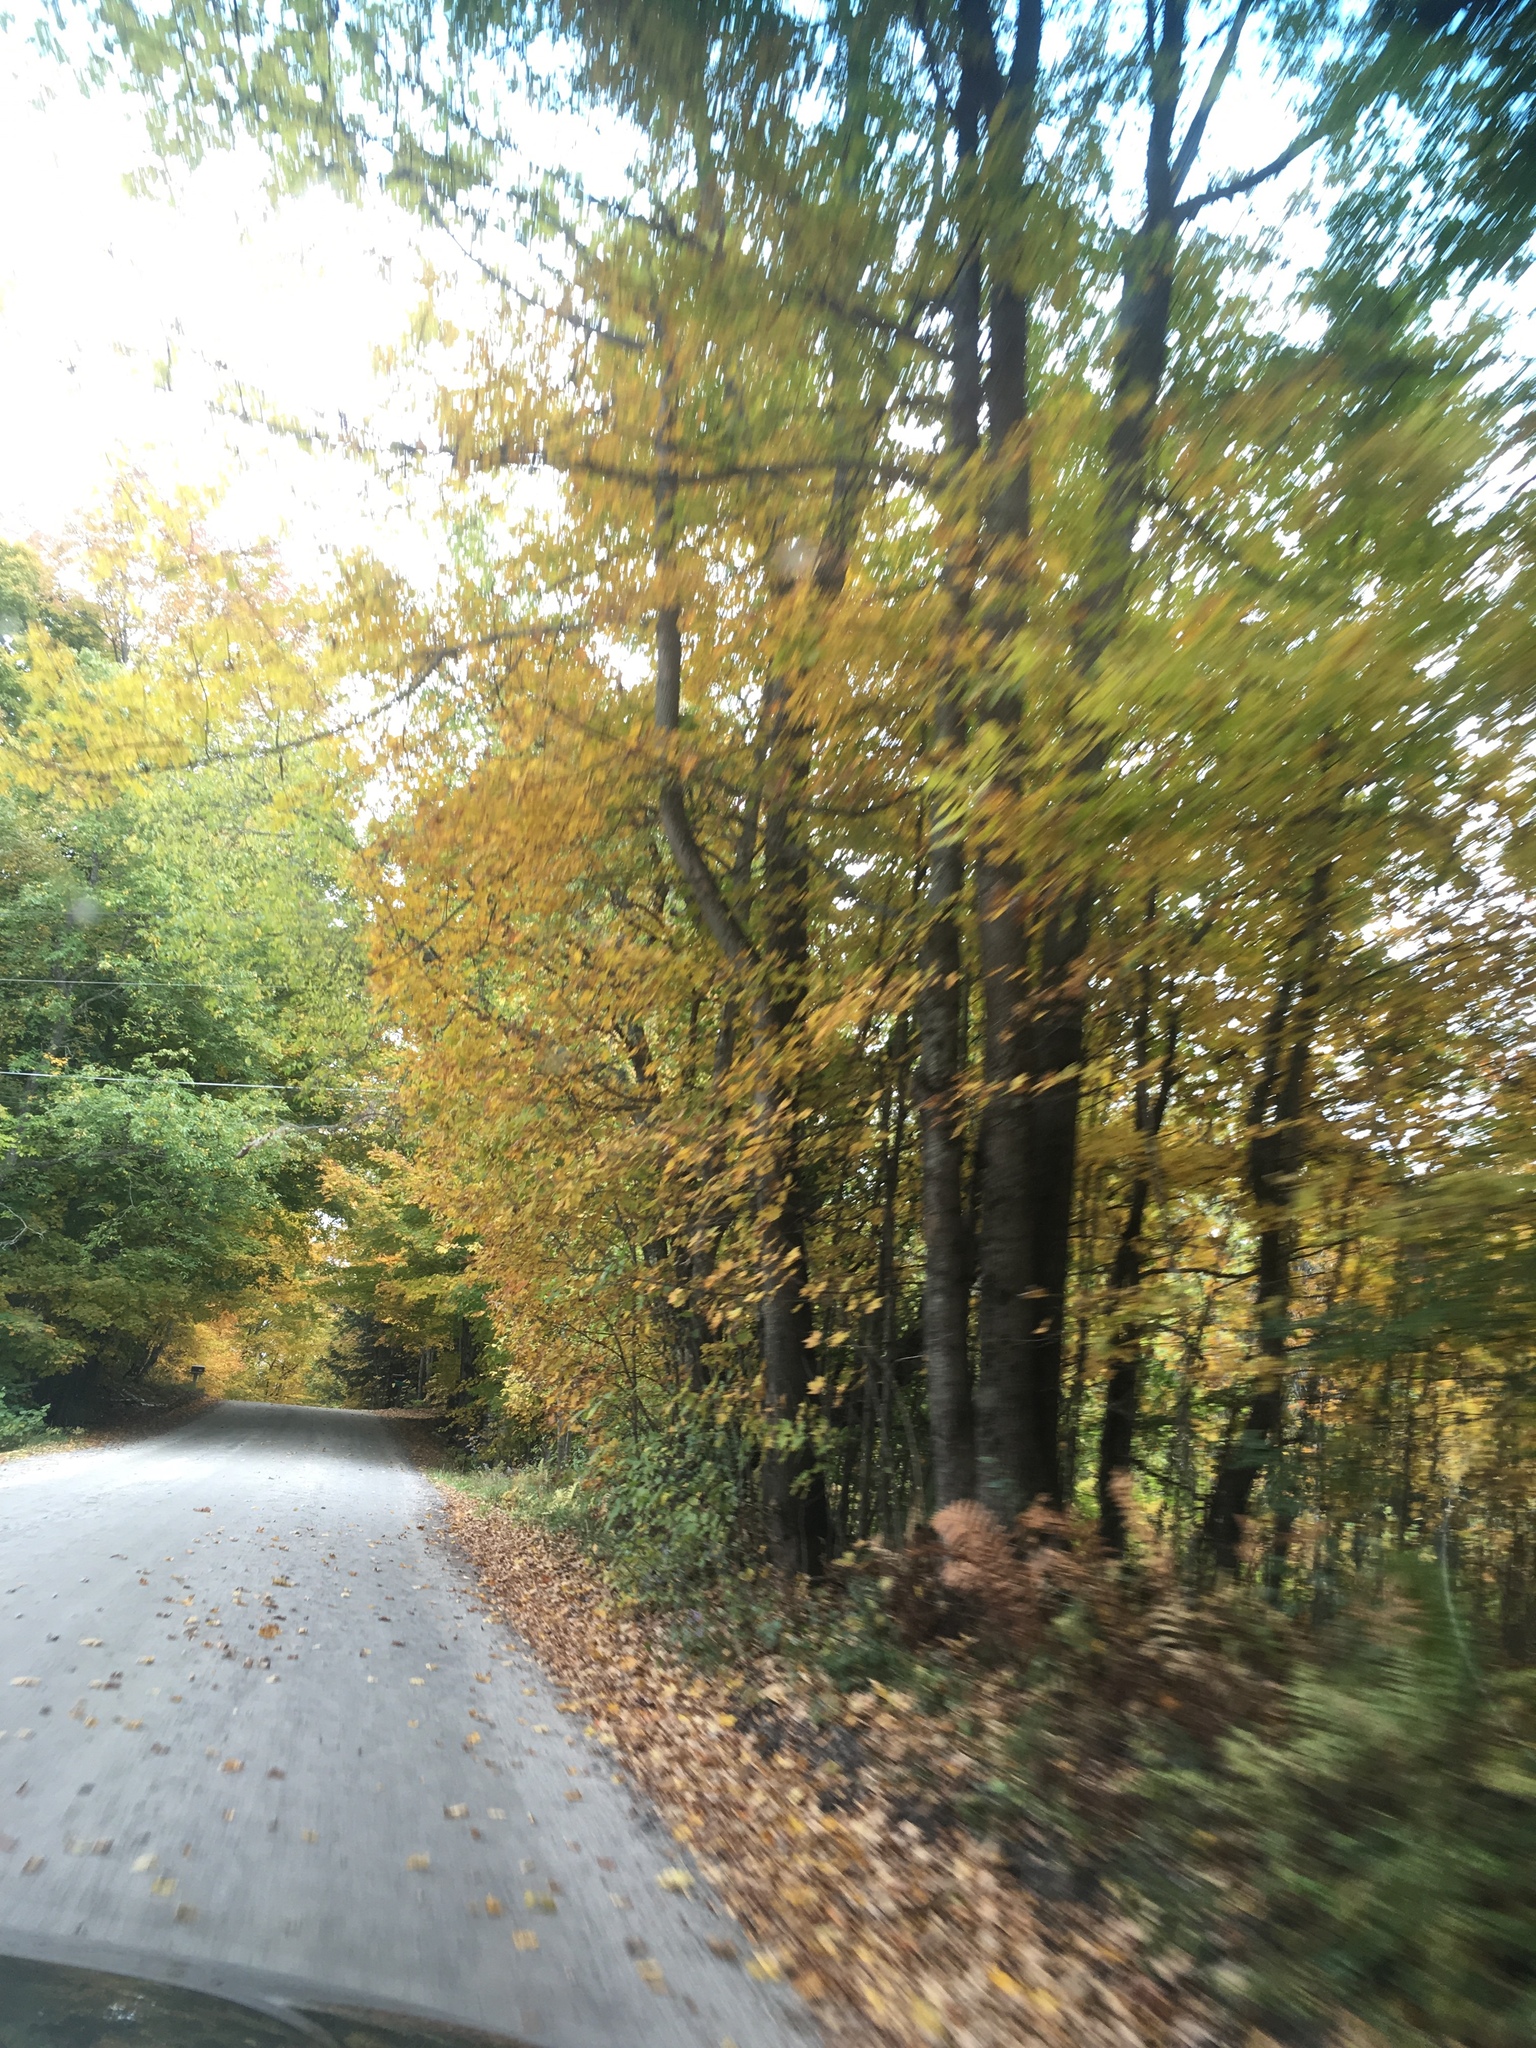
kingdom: Plantae
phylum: Tracheophyta
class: Magnoliopsida
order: Sapindales
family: Sapindaceae
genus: Acer
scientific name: Acer saccharum
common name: Sugar maple
